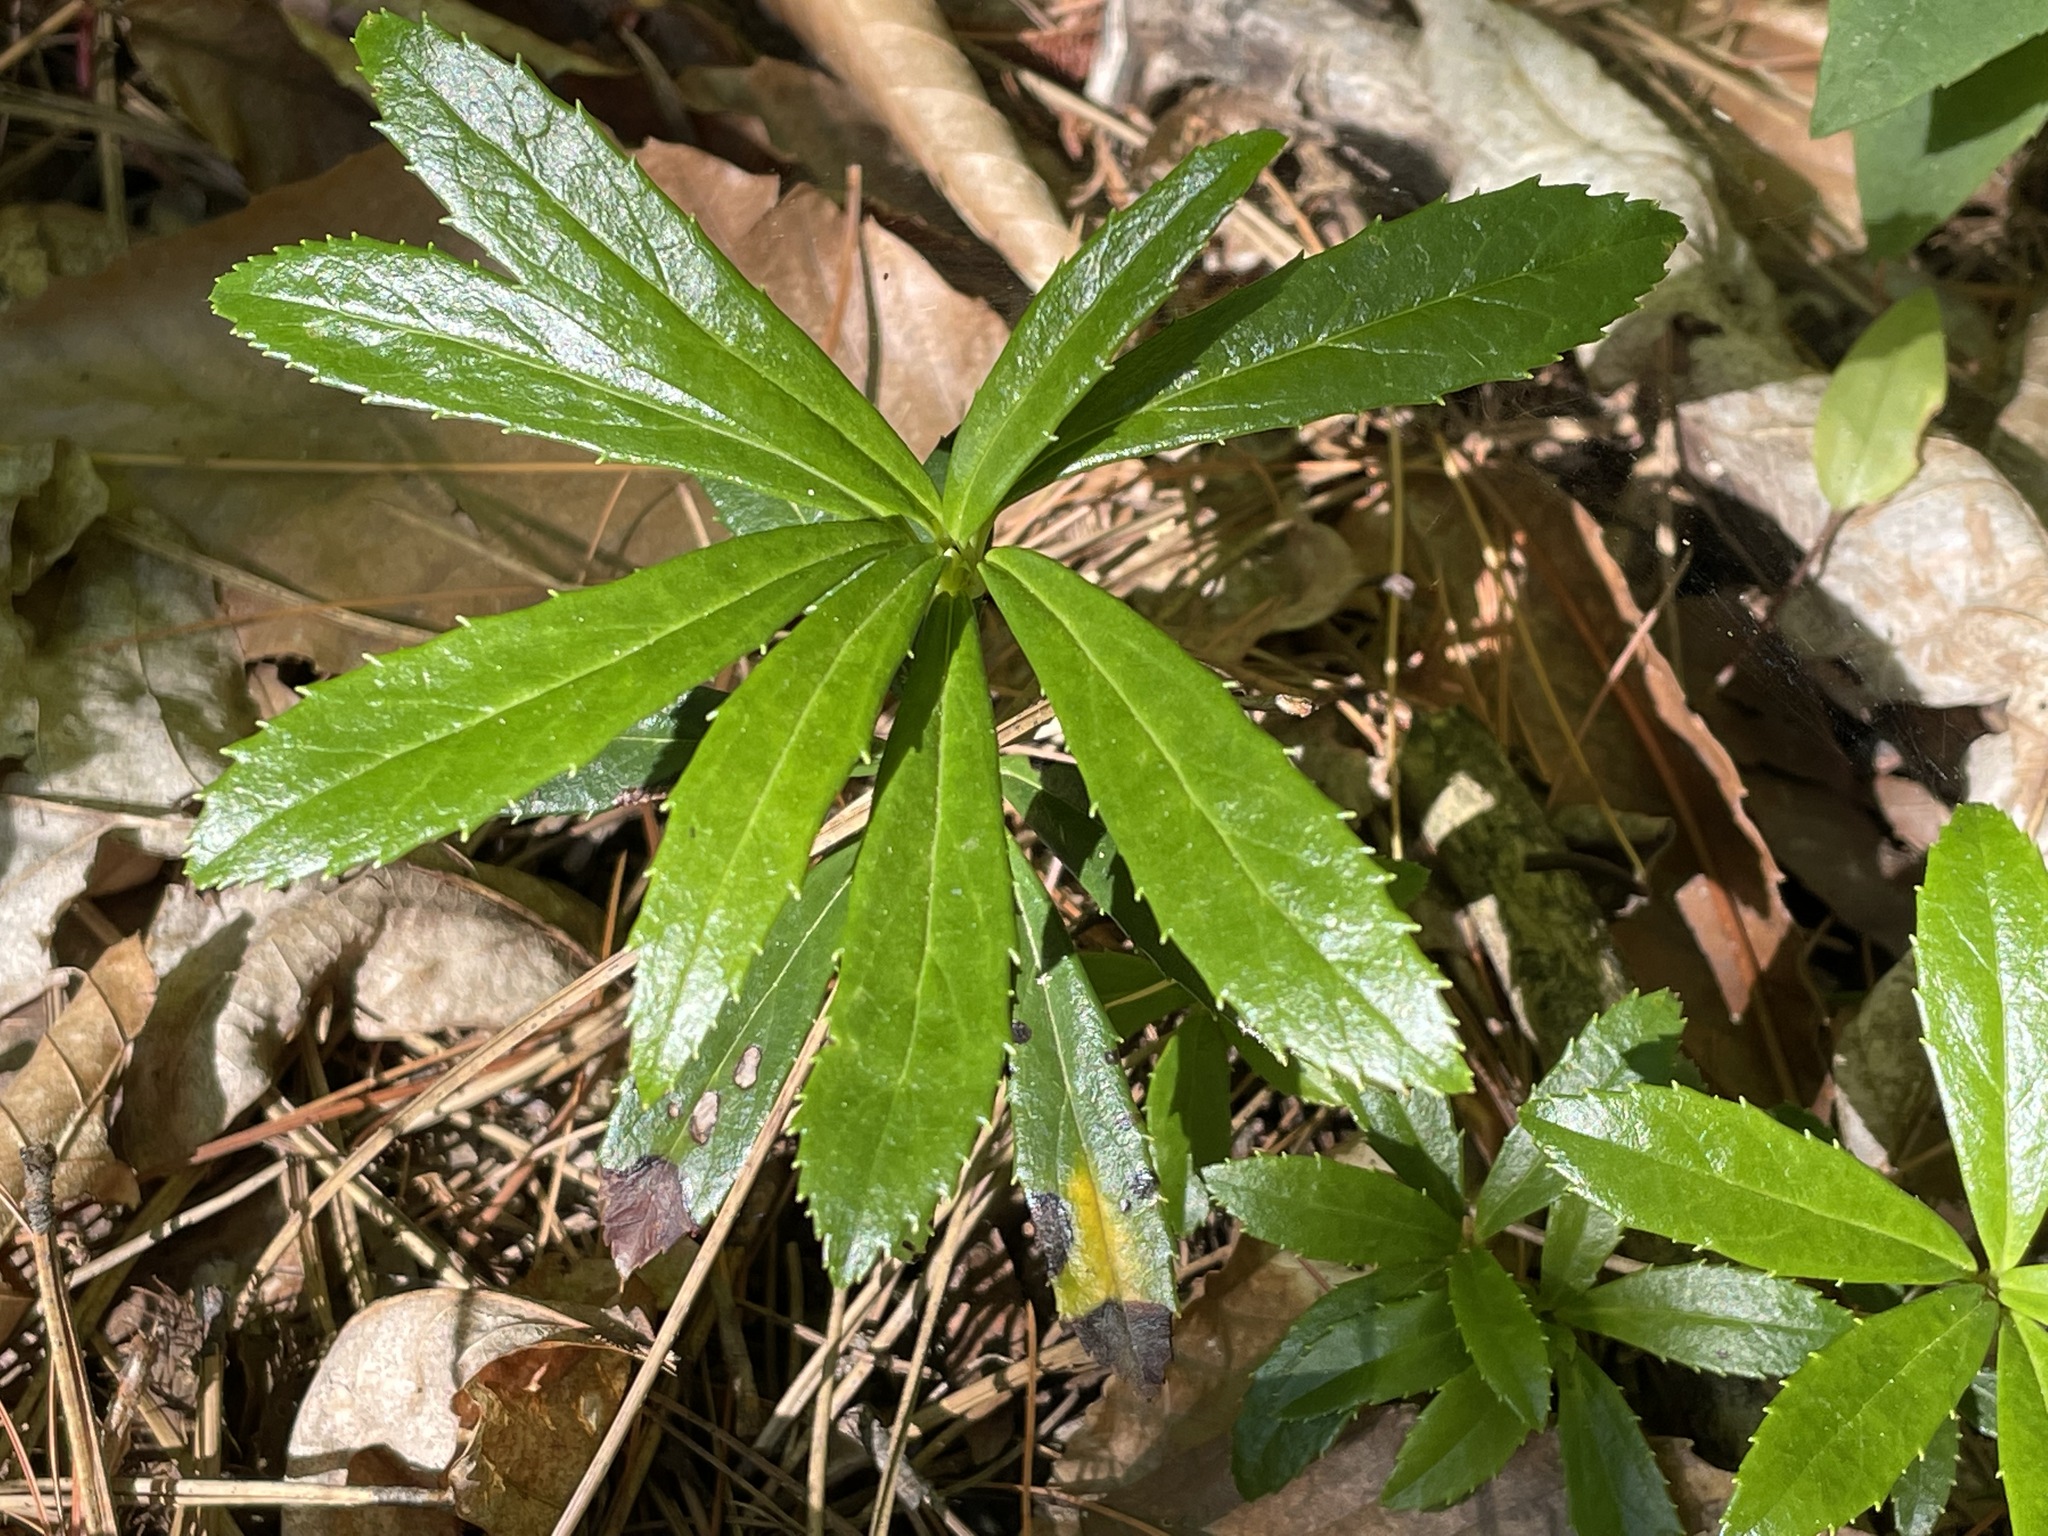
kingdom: Plantae
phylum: Tracheophyta
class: Magnoliopsida
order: Ericales
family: Ericaceae
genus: Chimaphila
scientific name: Chimaphila umbellata
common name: Pipsissewa
